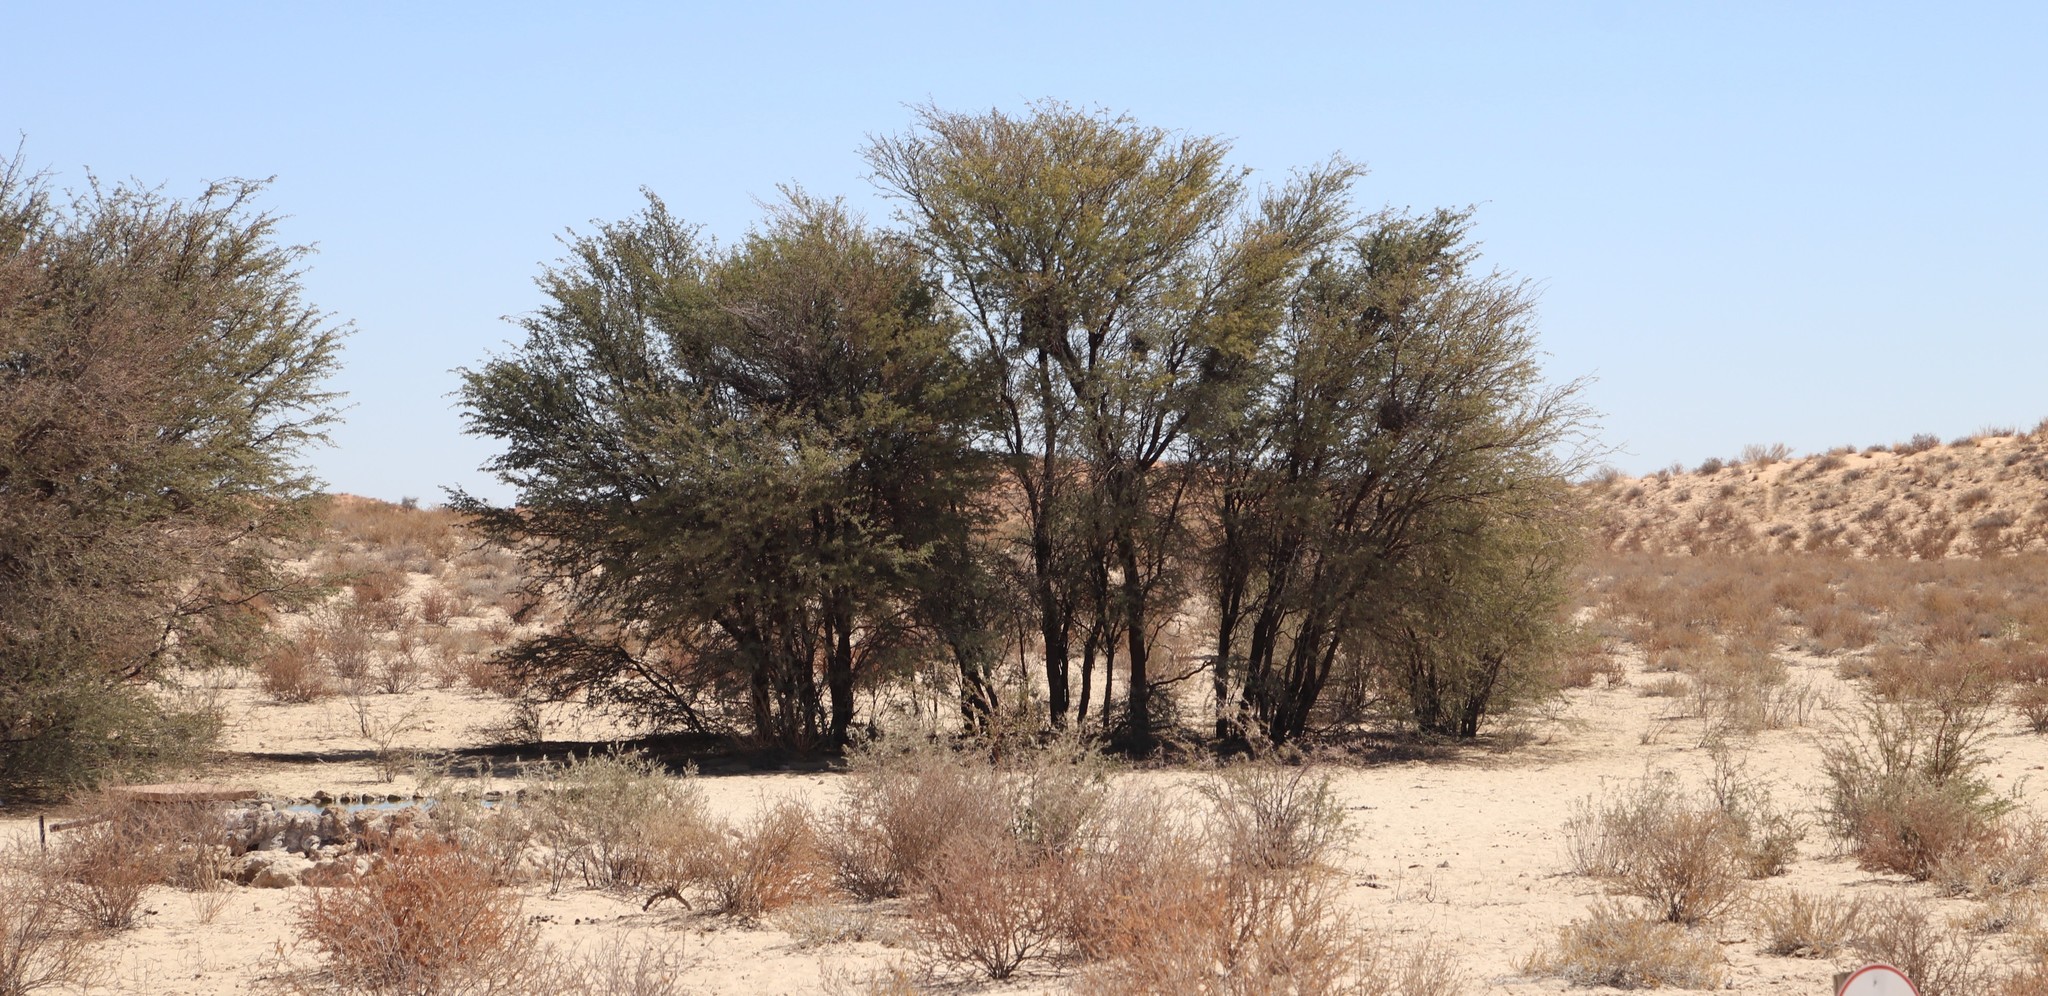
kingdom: Plantae
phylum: Tracheophyta
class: Magnoliopsida
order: Fabales
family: Fabaceae
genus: Vachellia
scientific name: Vachellia erioloba
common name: Camel thorn
